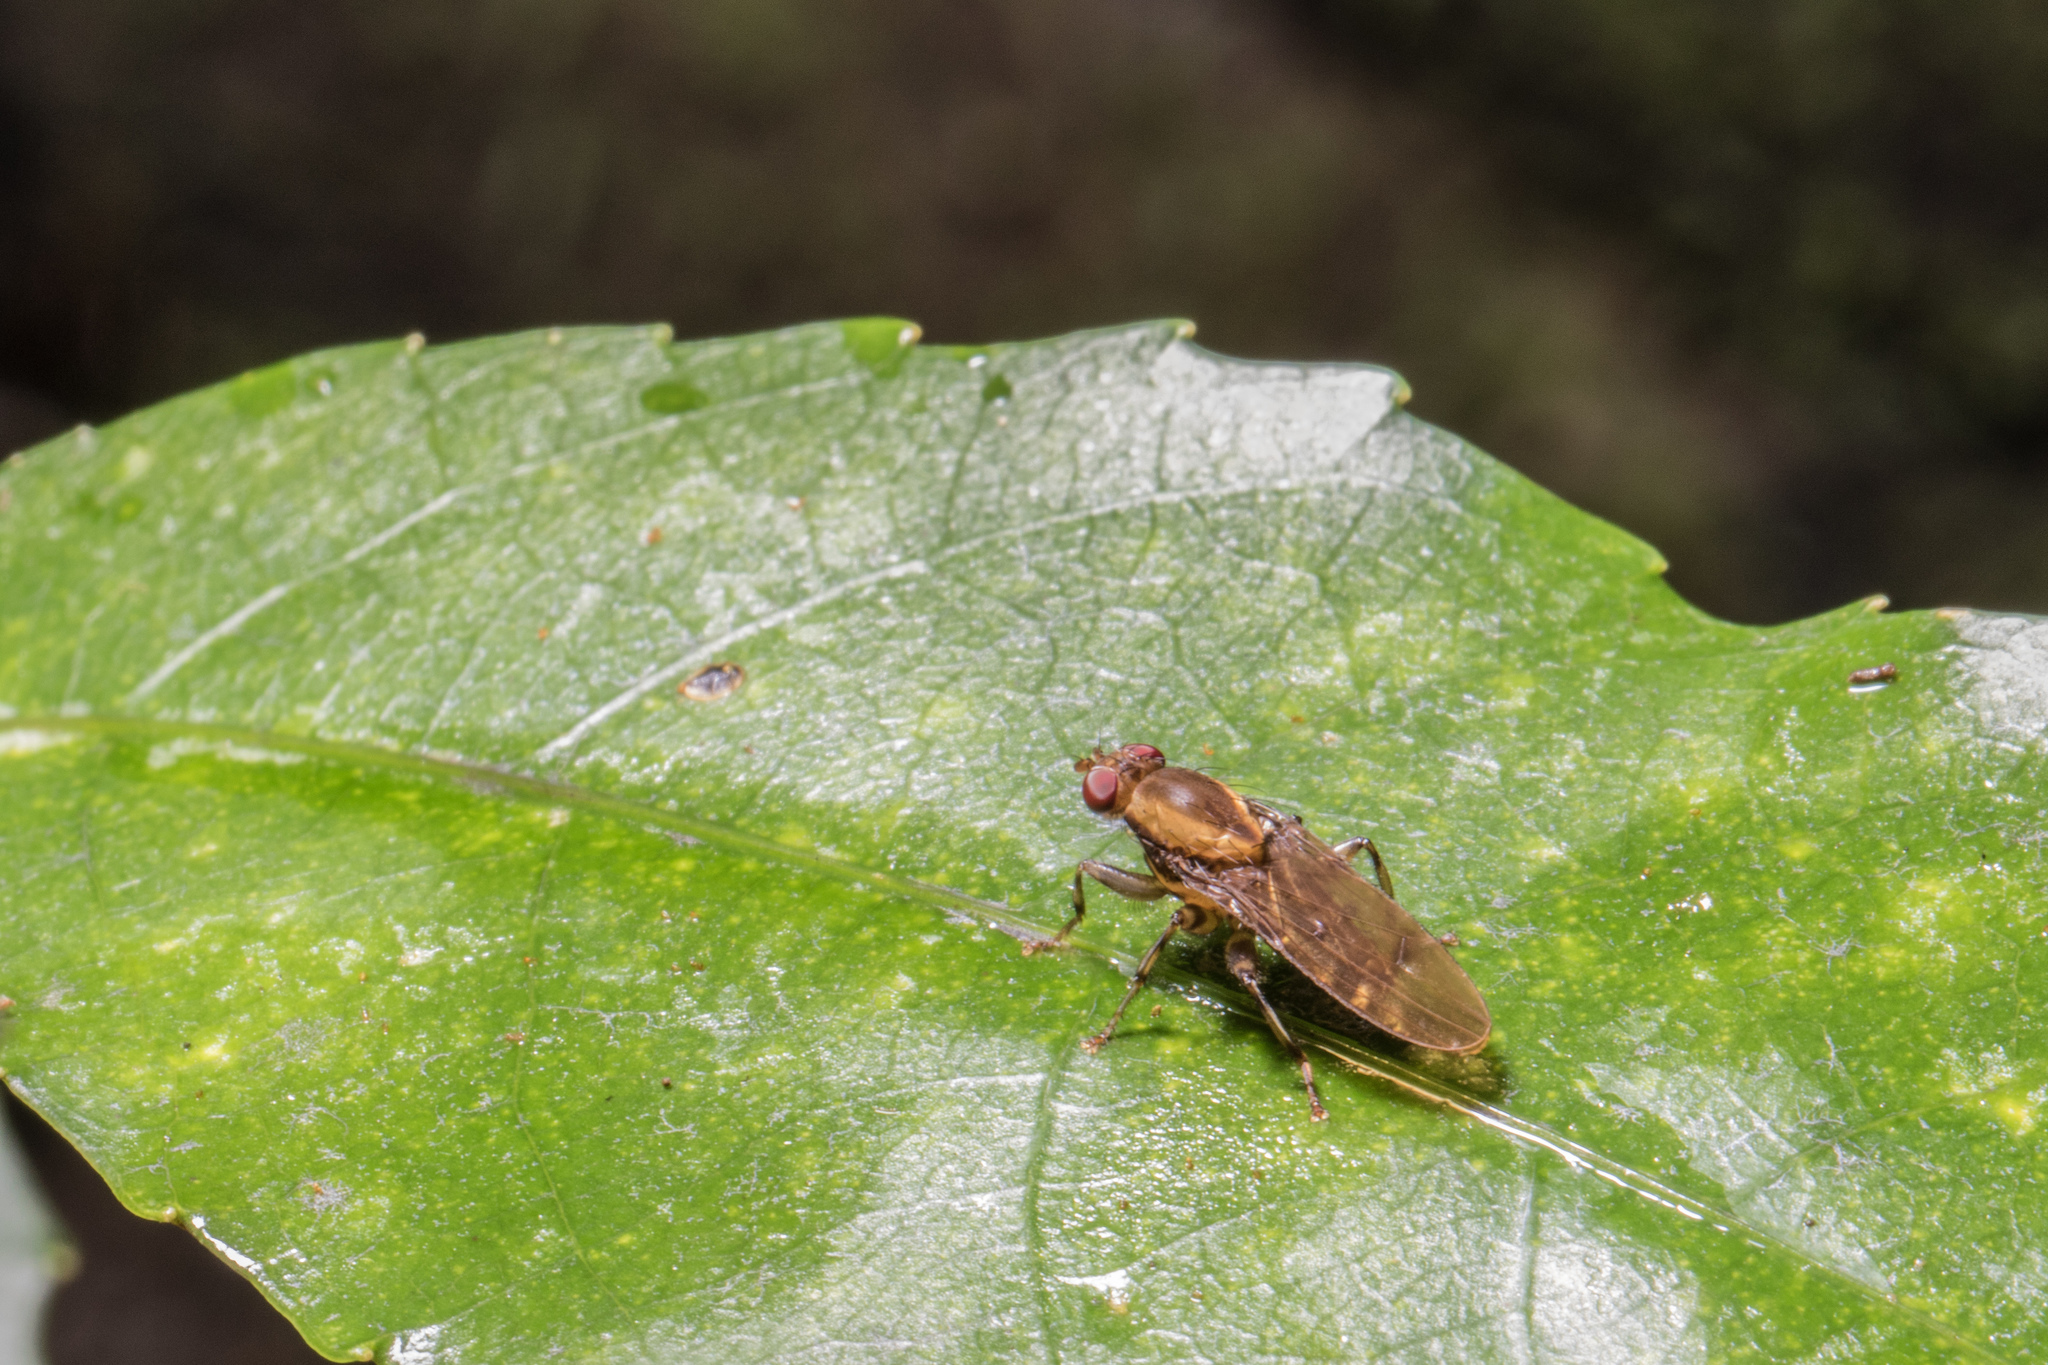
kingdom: Animalia
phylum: Arthropoda
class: Insecta
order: Diptera
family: Helosciomyzidae
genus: Scordalus
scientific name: Scordalus femoratus
